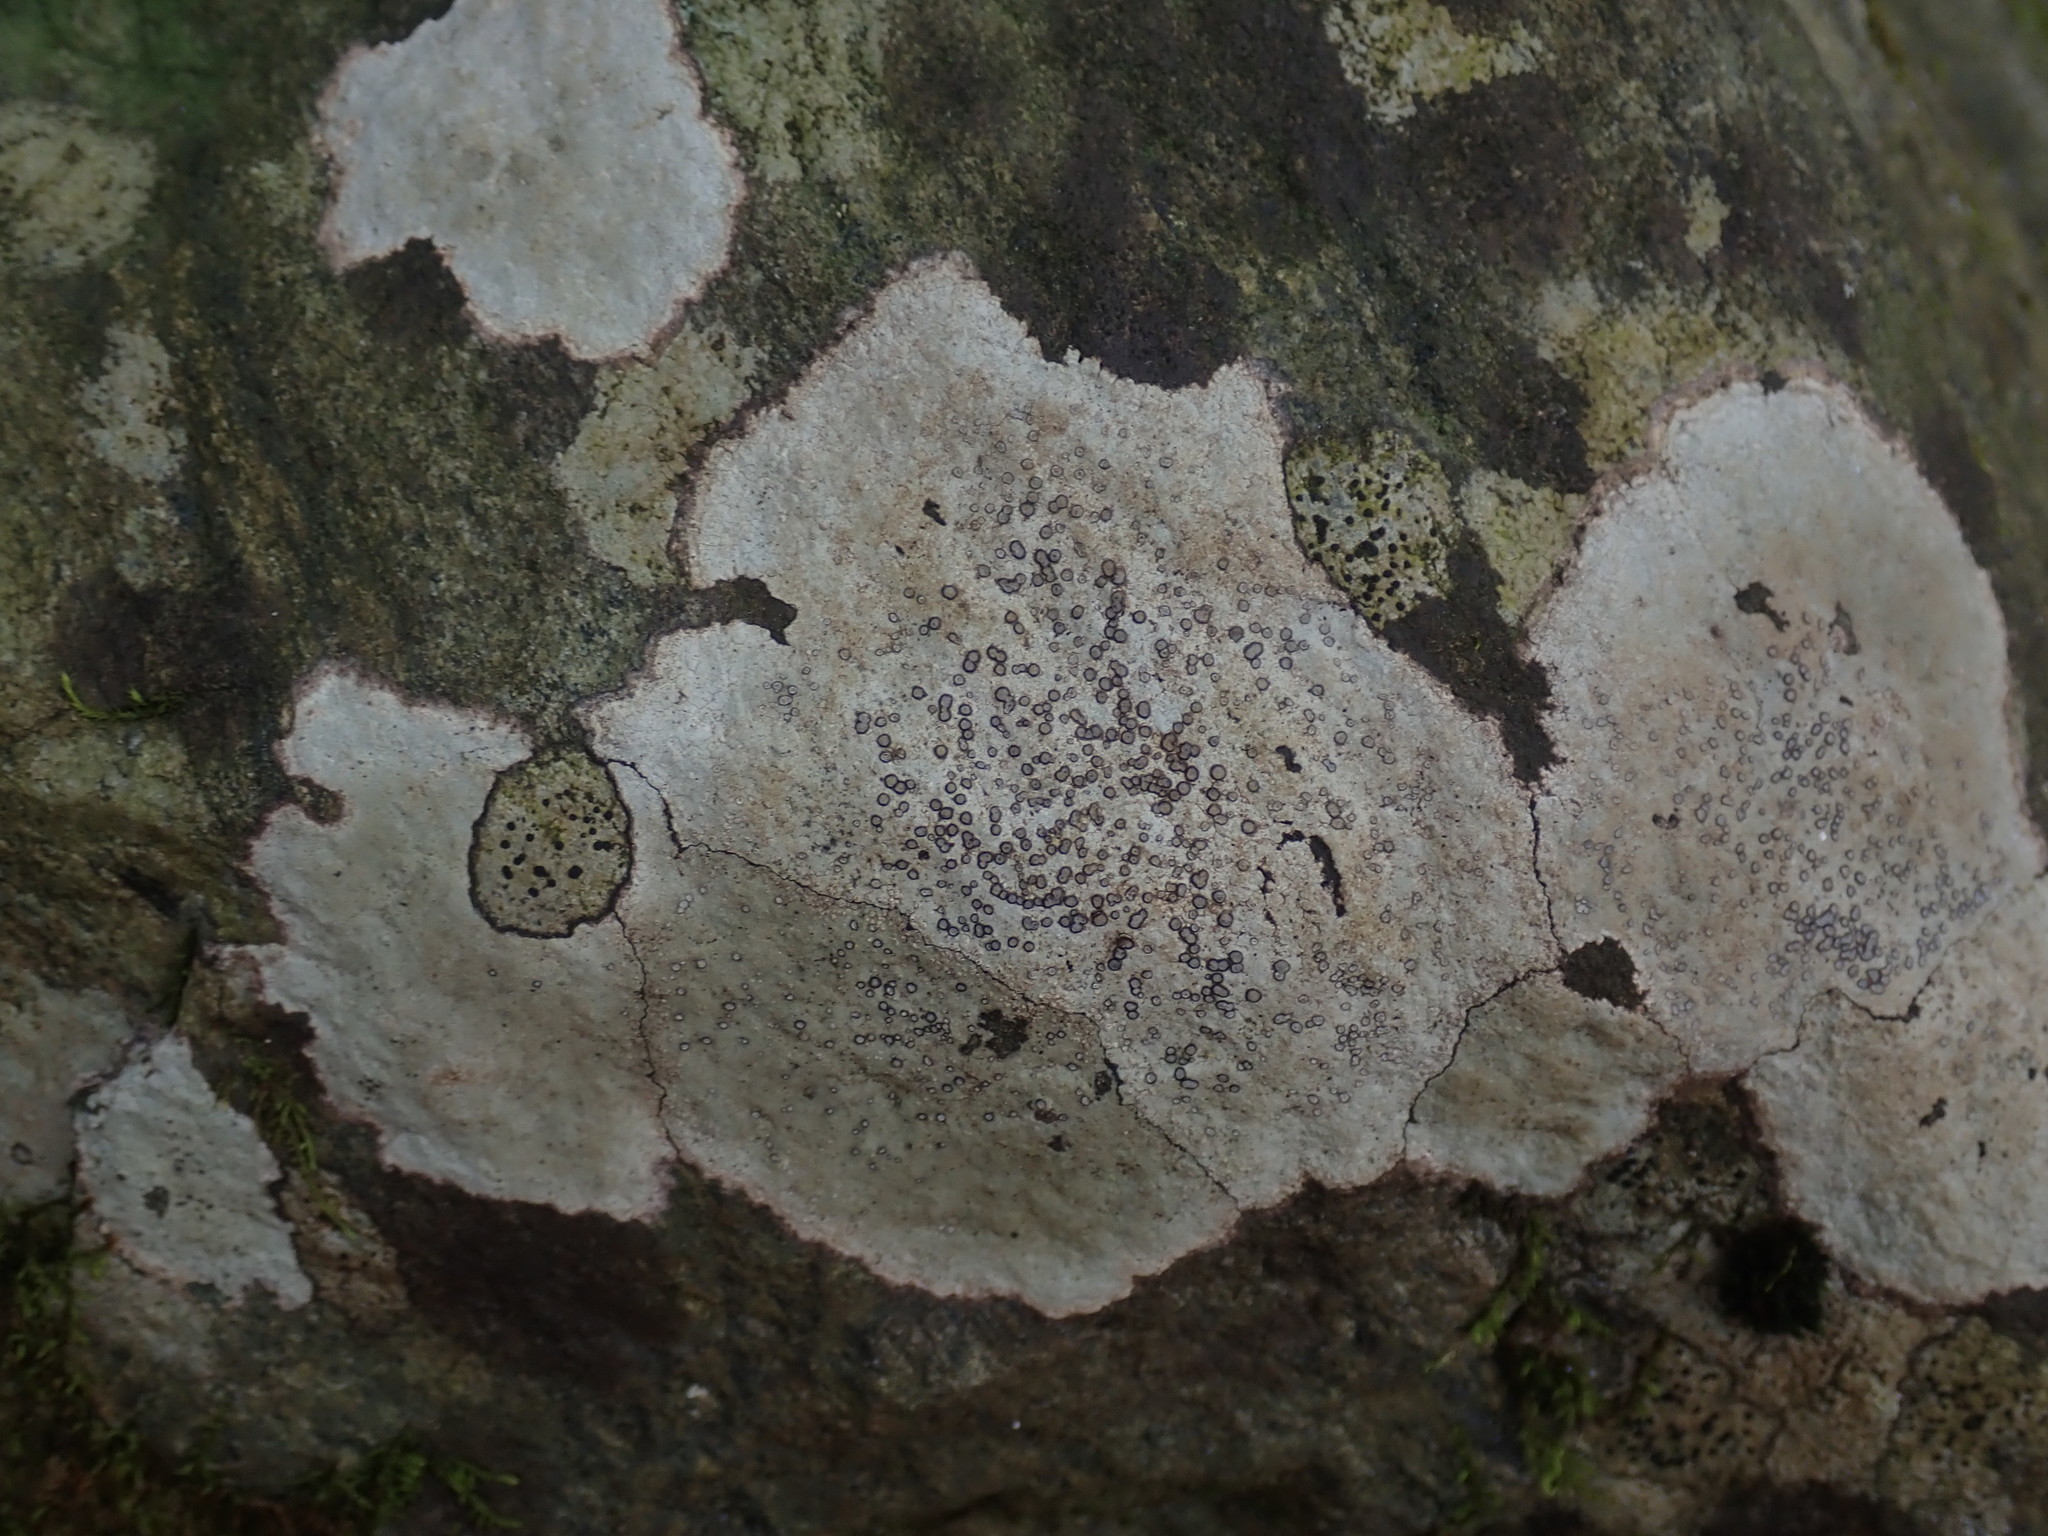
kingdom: Fungi
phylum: Ascomycota
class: Lecanoromycetes
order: Lecideales
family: Lecideaceae
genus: Porpidia
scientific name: Porpidia albocaerulescens
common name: Smokey-eyed boulder lichen
